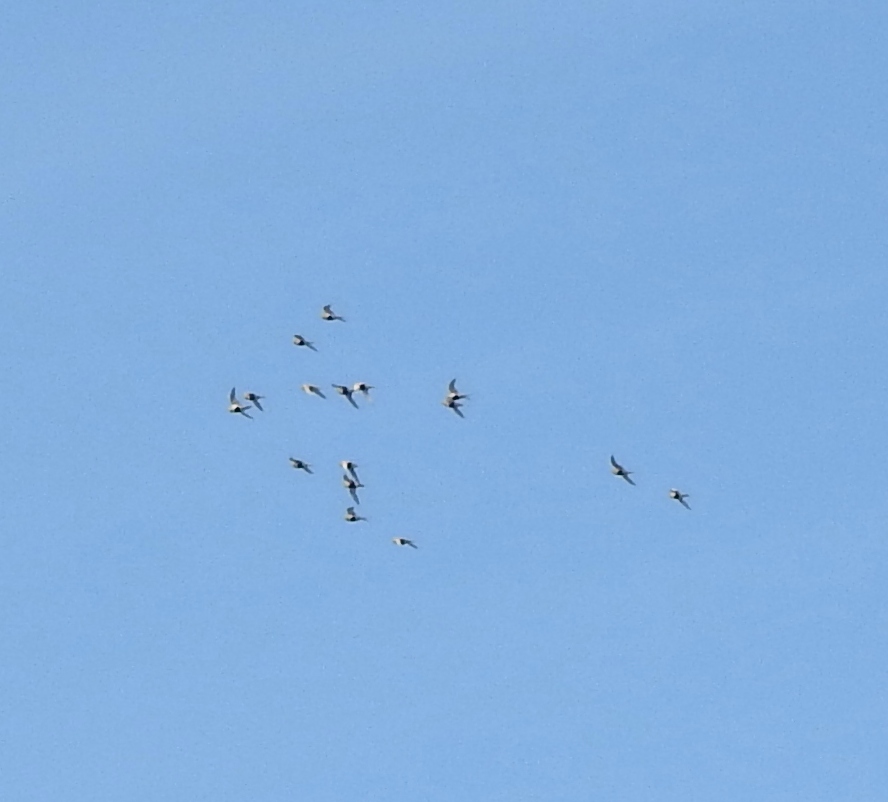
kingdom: Animalia
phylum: Chordata
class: Aves
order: Pteroclidiformes
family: Pteroclididae
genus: Syrrhaptes
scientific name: Syrrhaptes paradoxus
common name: Pallas's sandgrouse
